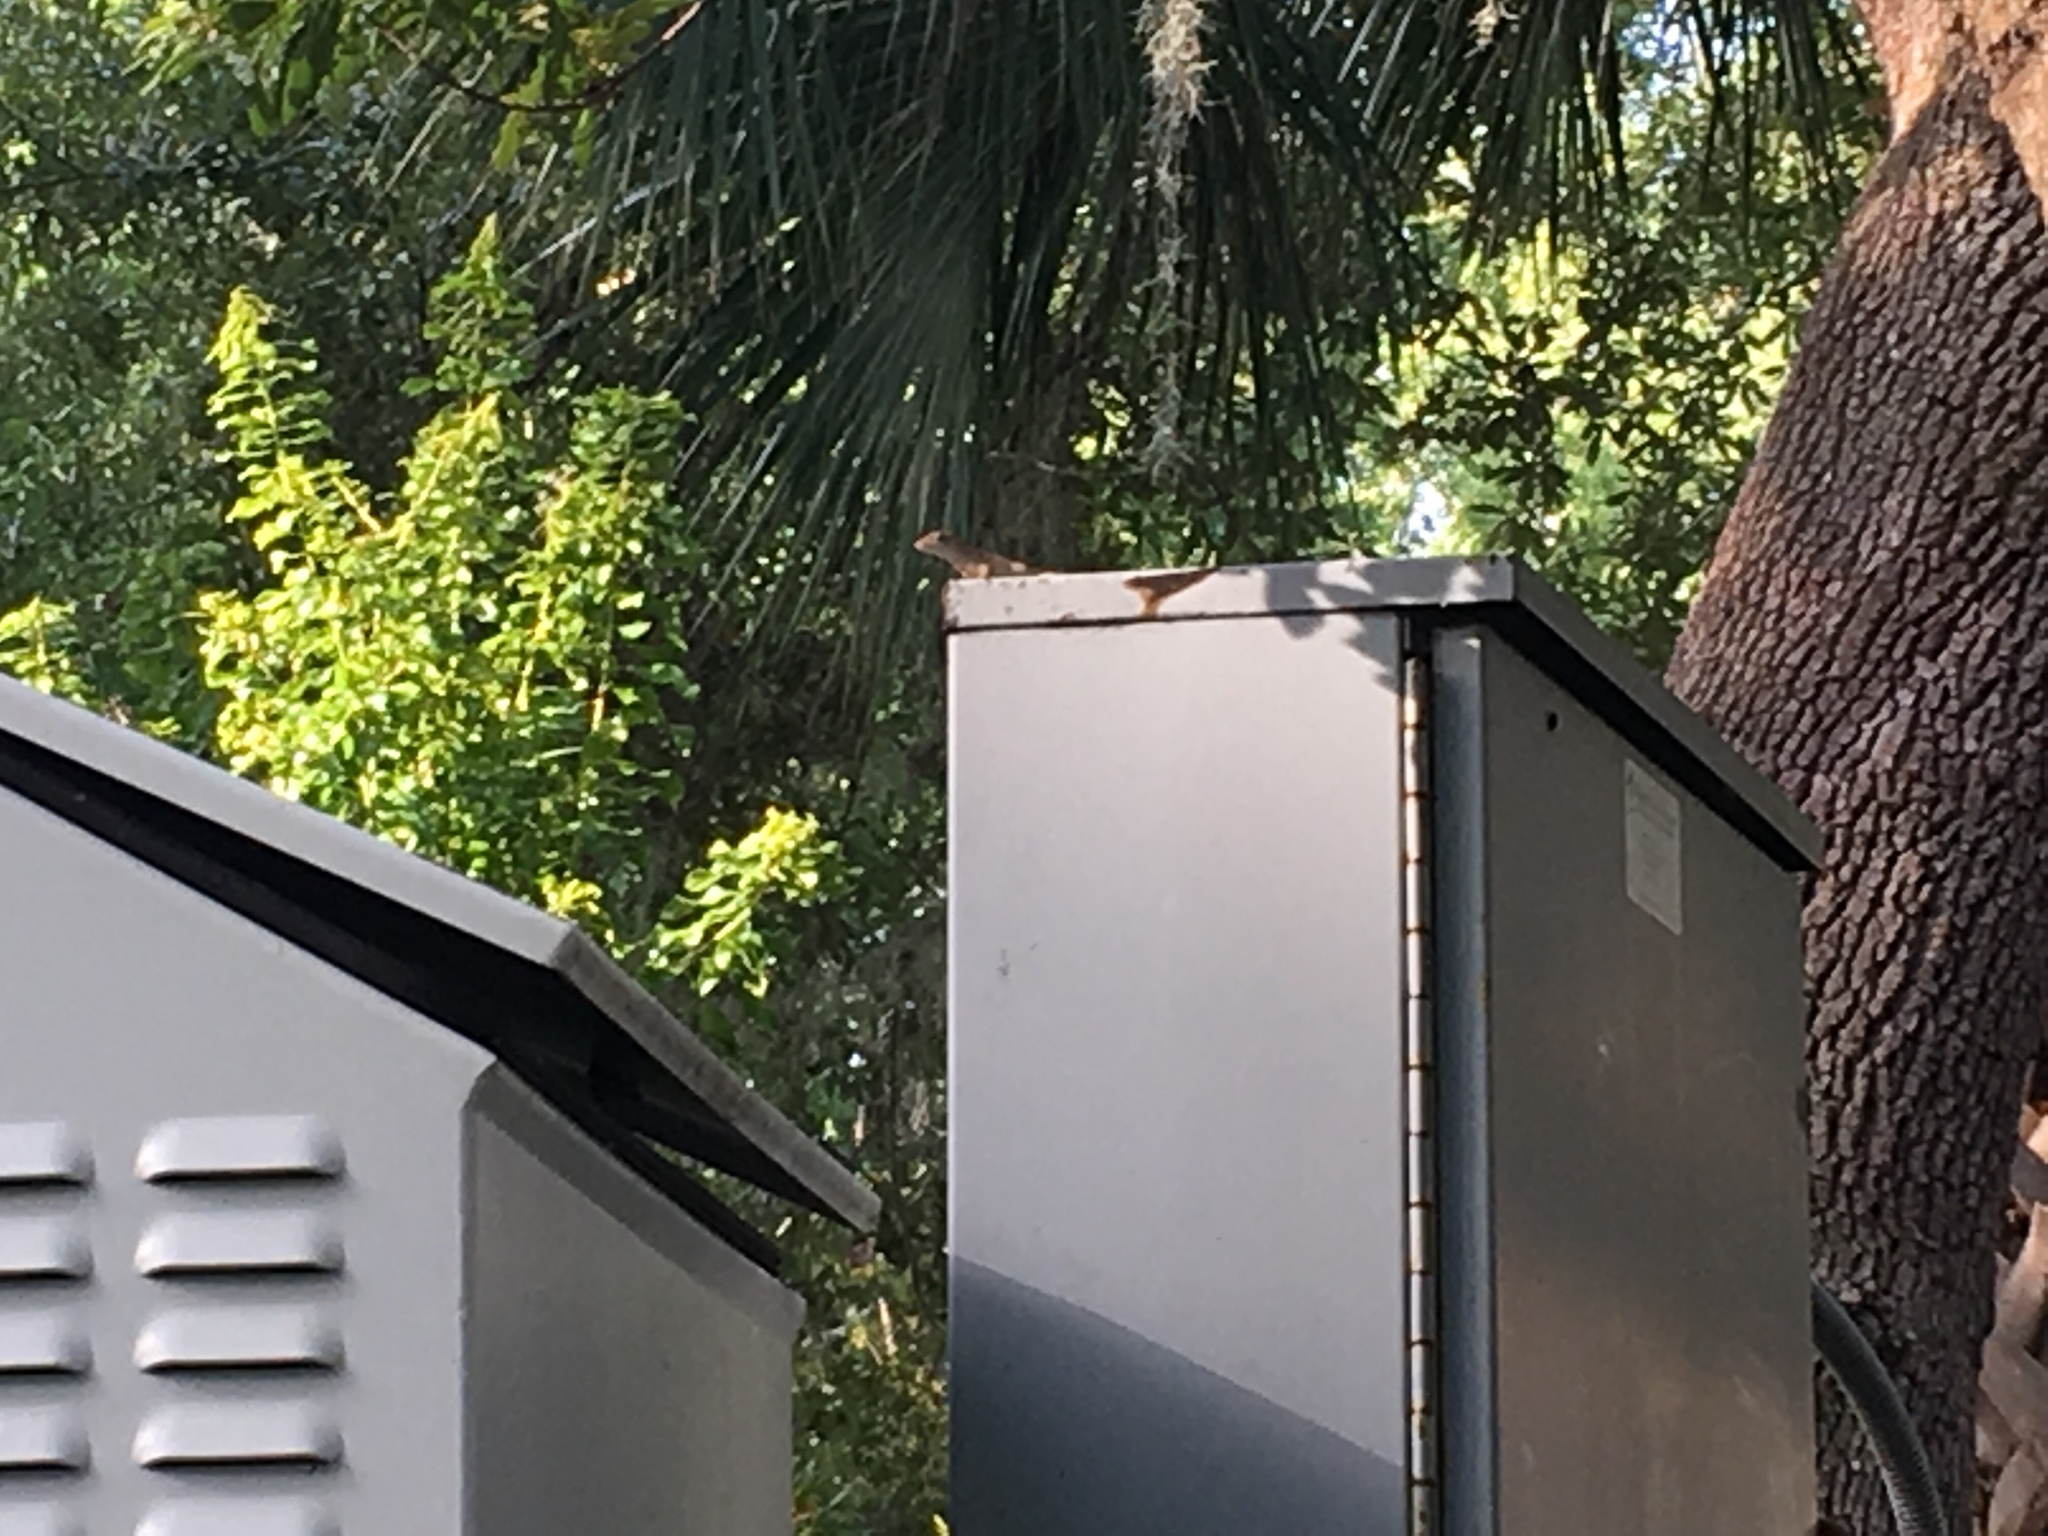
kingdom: Animalia
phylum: Chordata
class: Squamata
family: Dactyloidae
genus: Anolis
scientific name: Anolis sagrei
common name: Brown anole
